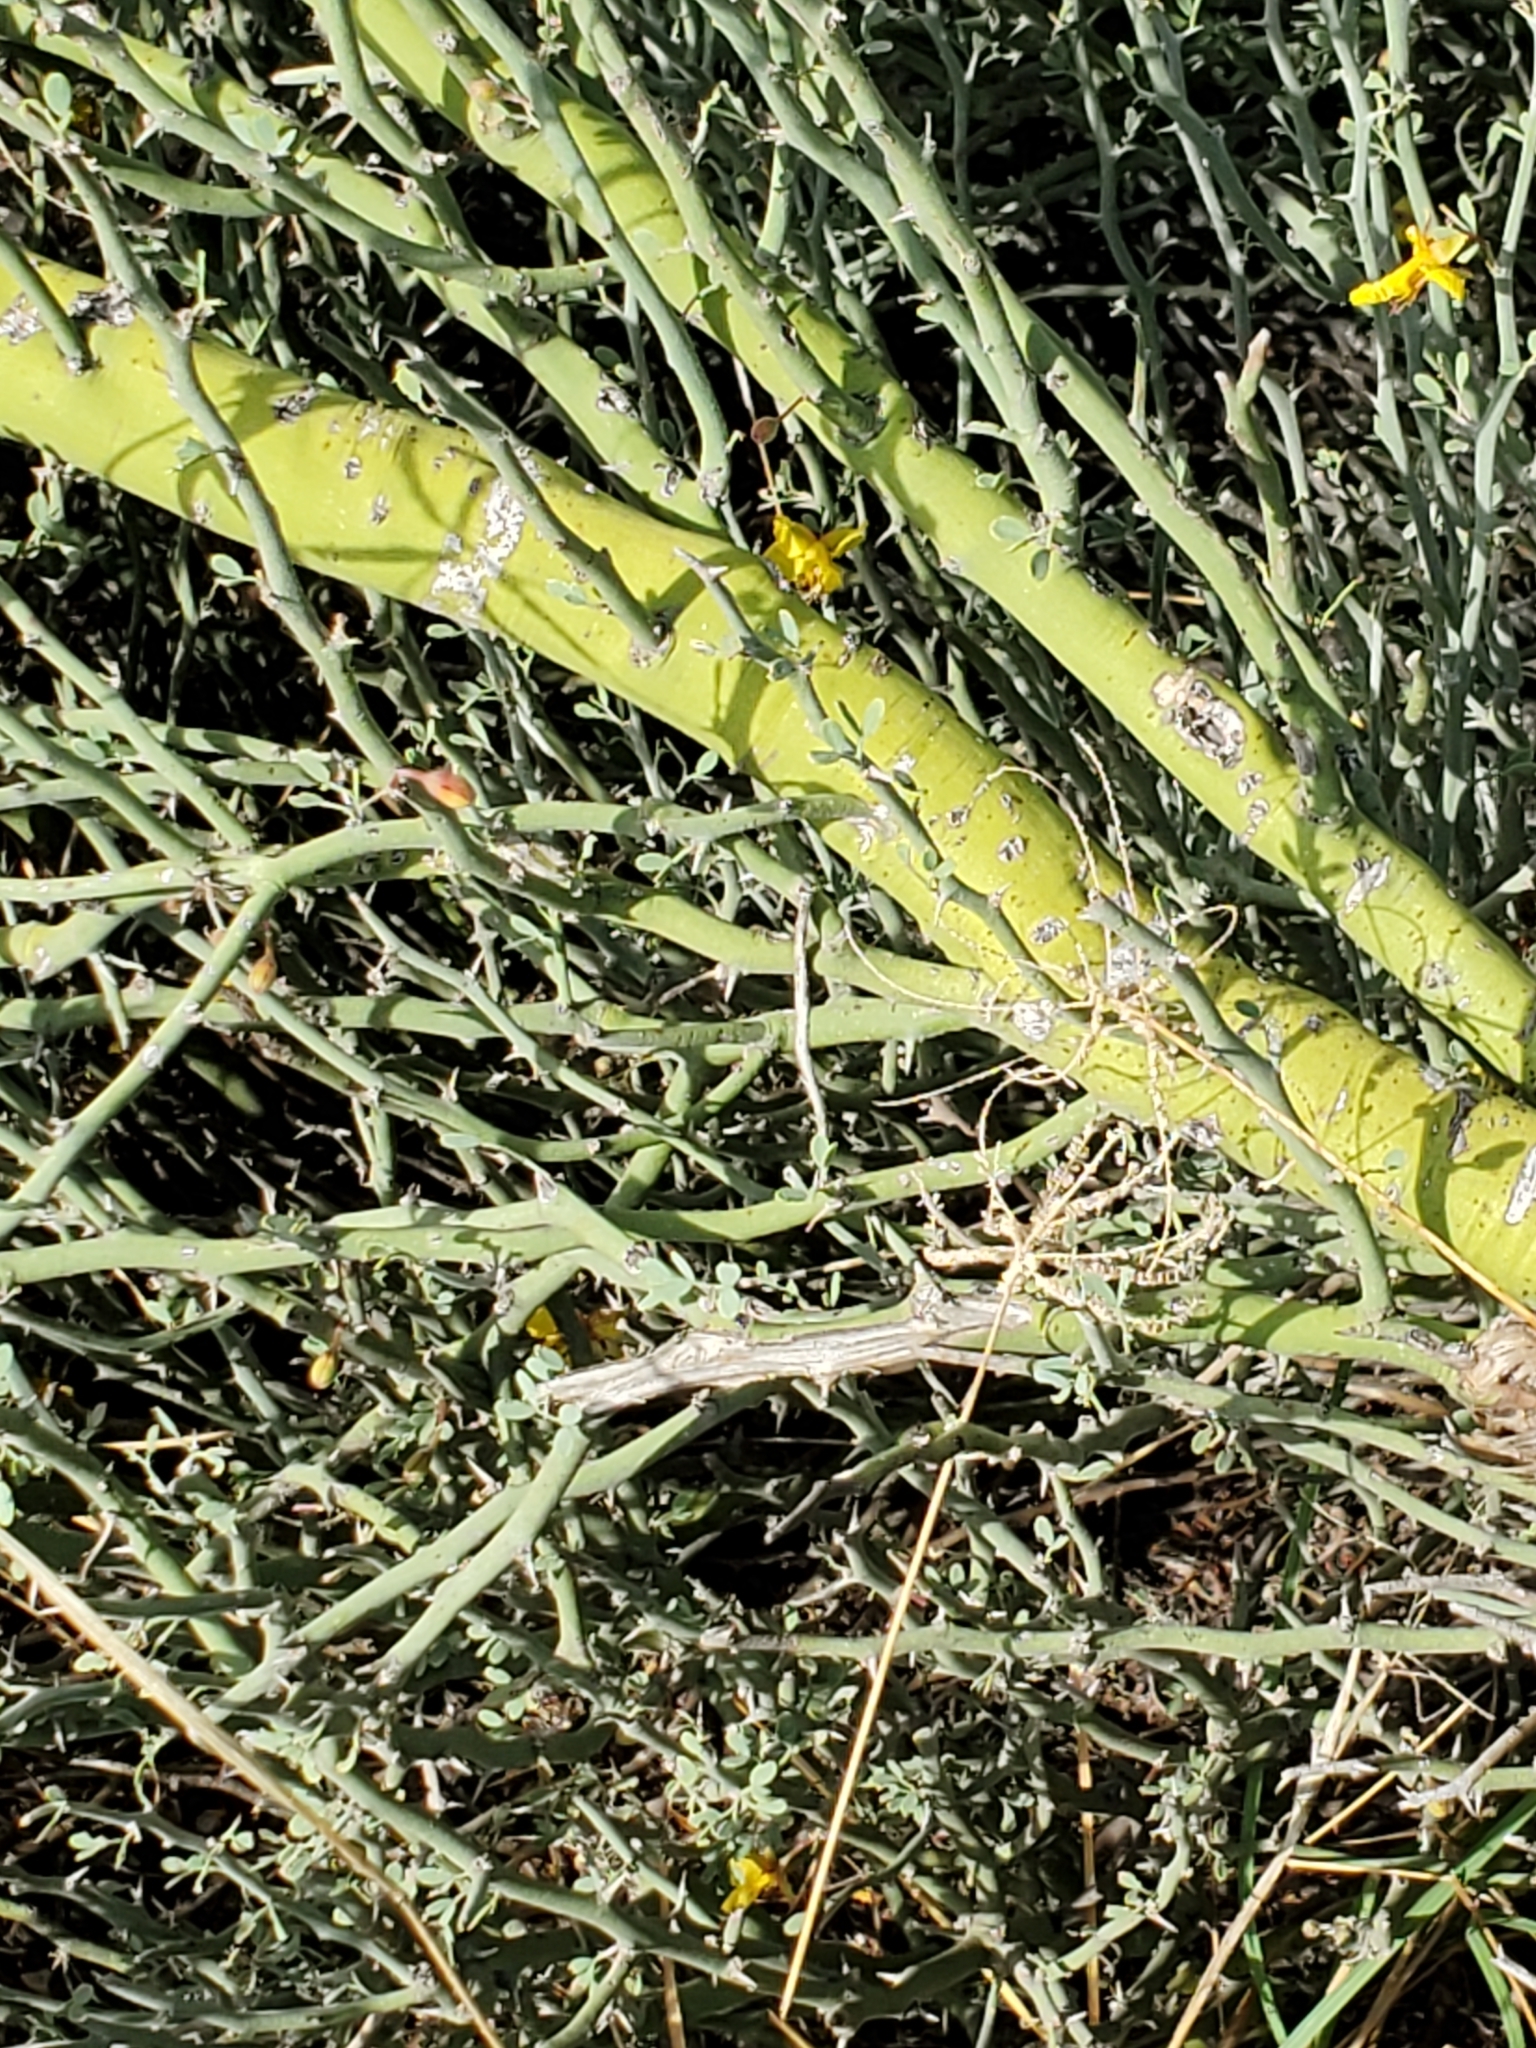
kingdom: Plantae
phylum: Tracheophyta
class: Magnoliopsida
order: Fabales
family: Fabaceae
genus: Parkinsonia
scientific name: Parkinsonia texana
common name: Texas paloverde
